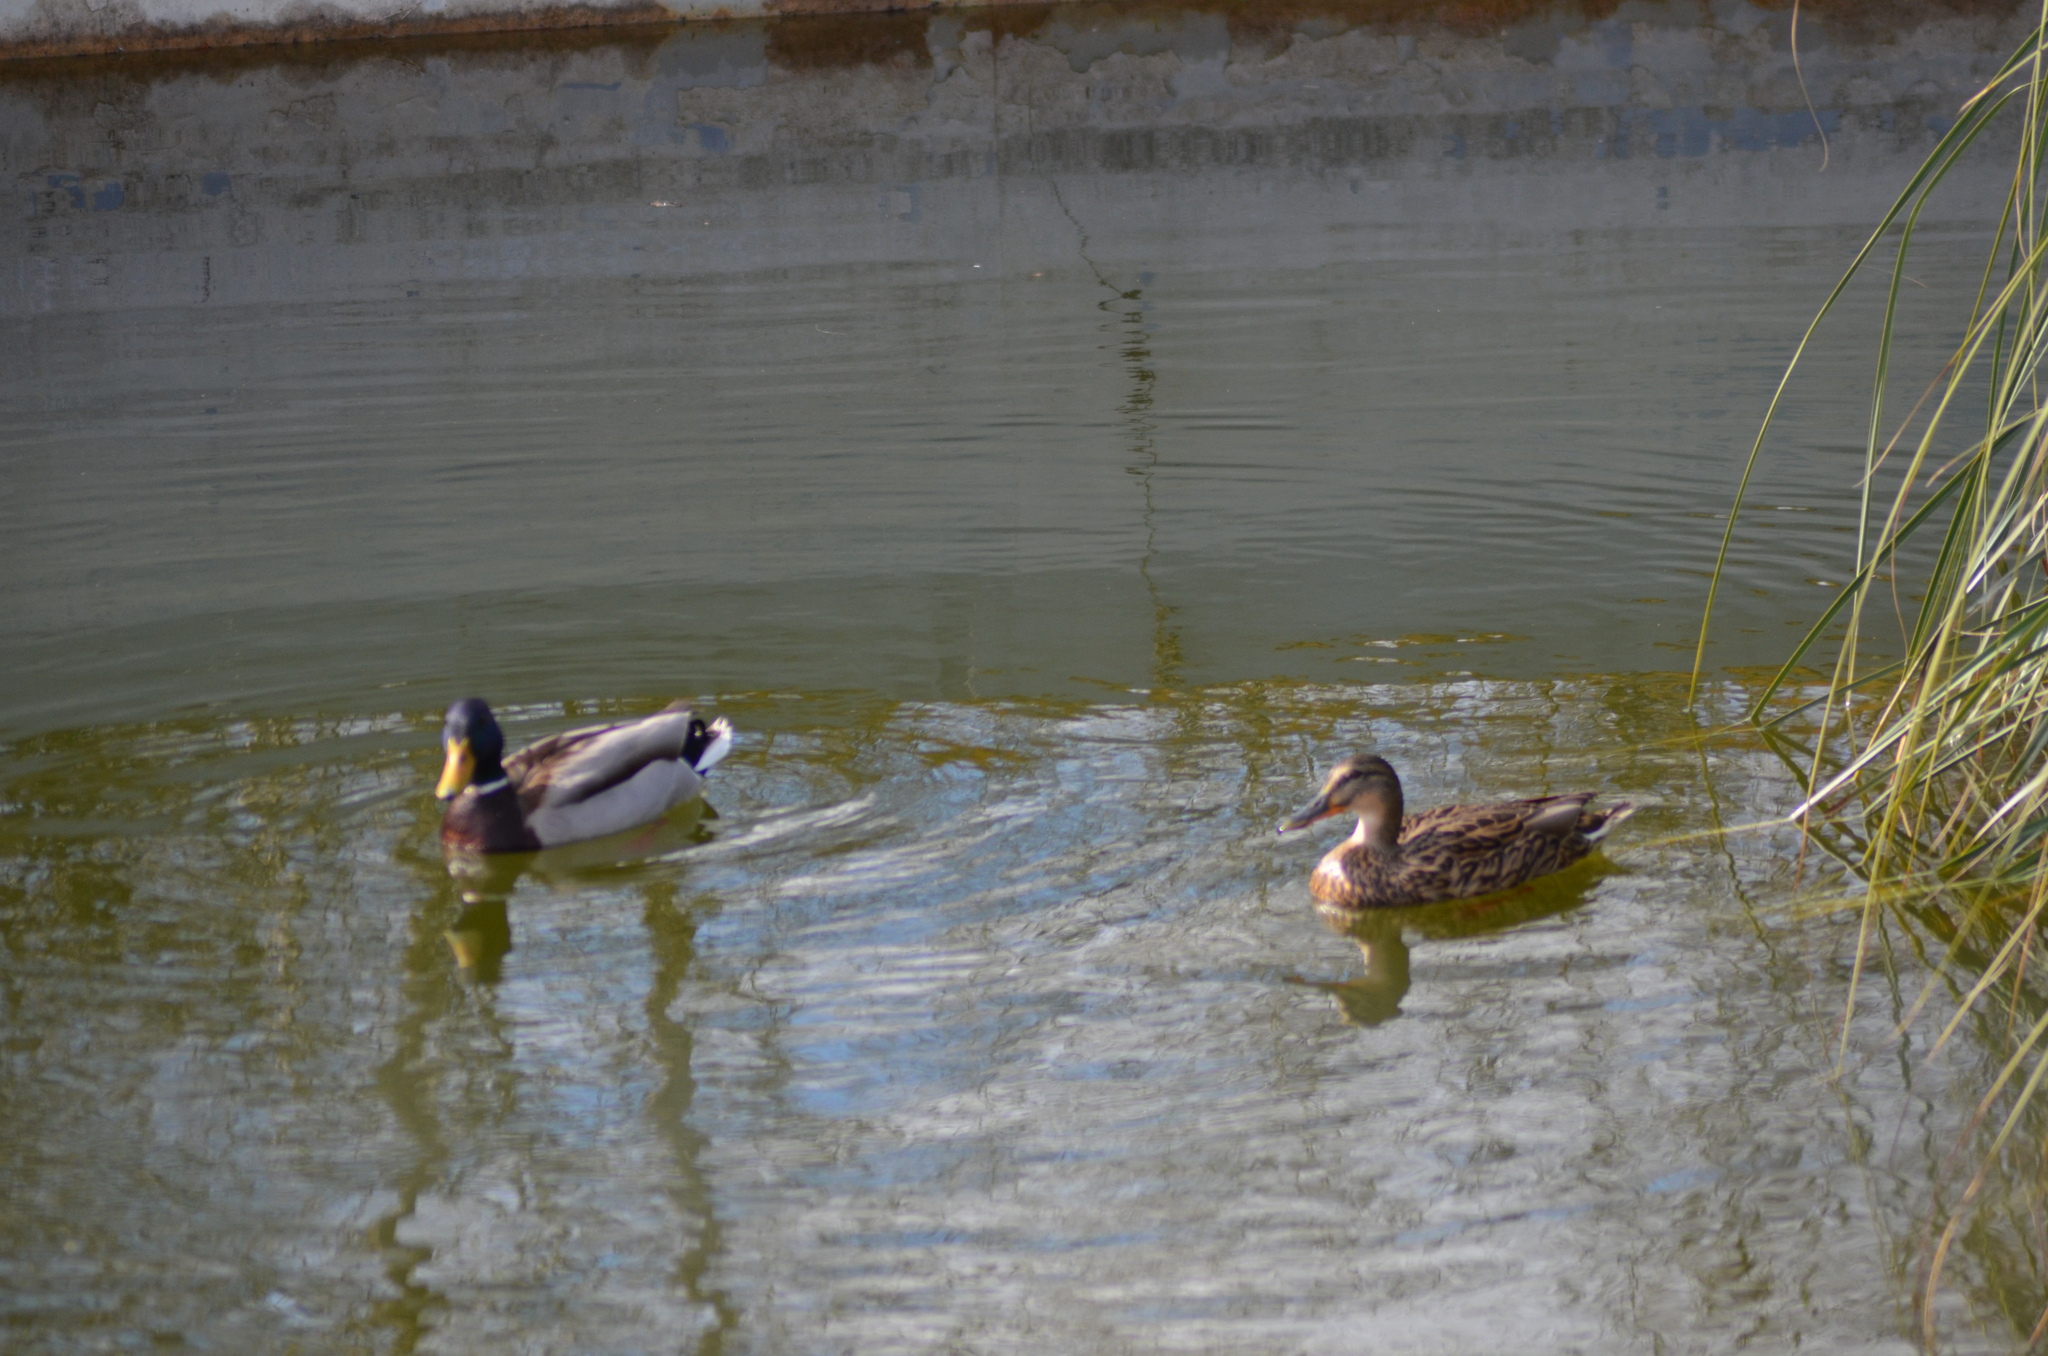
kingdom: Animalia
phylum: Chordata
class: Aves
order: Anseriformes
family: Anatidae
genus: Anas
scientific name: Anas platyrhynchos
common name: Mallard
